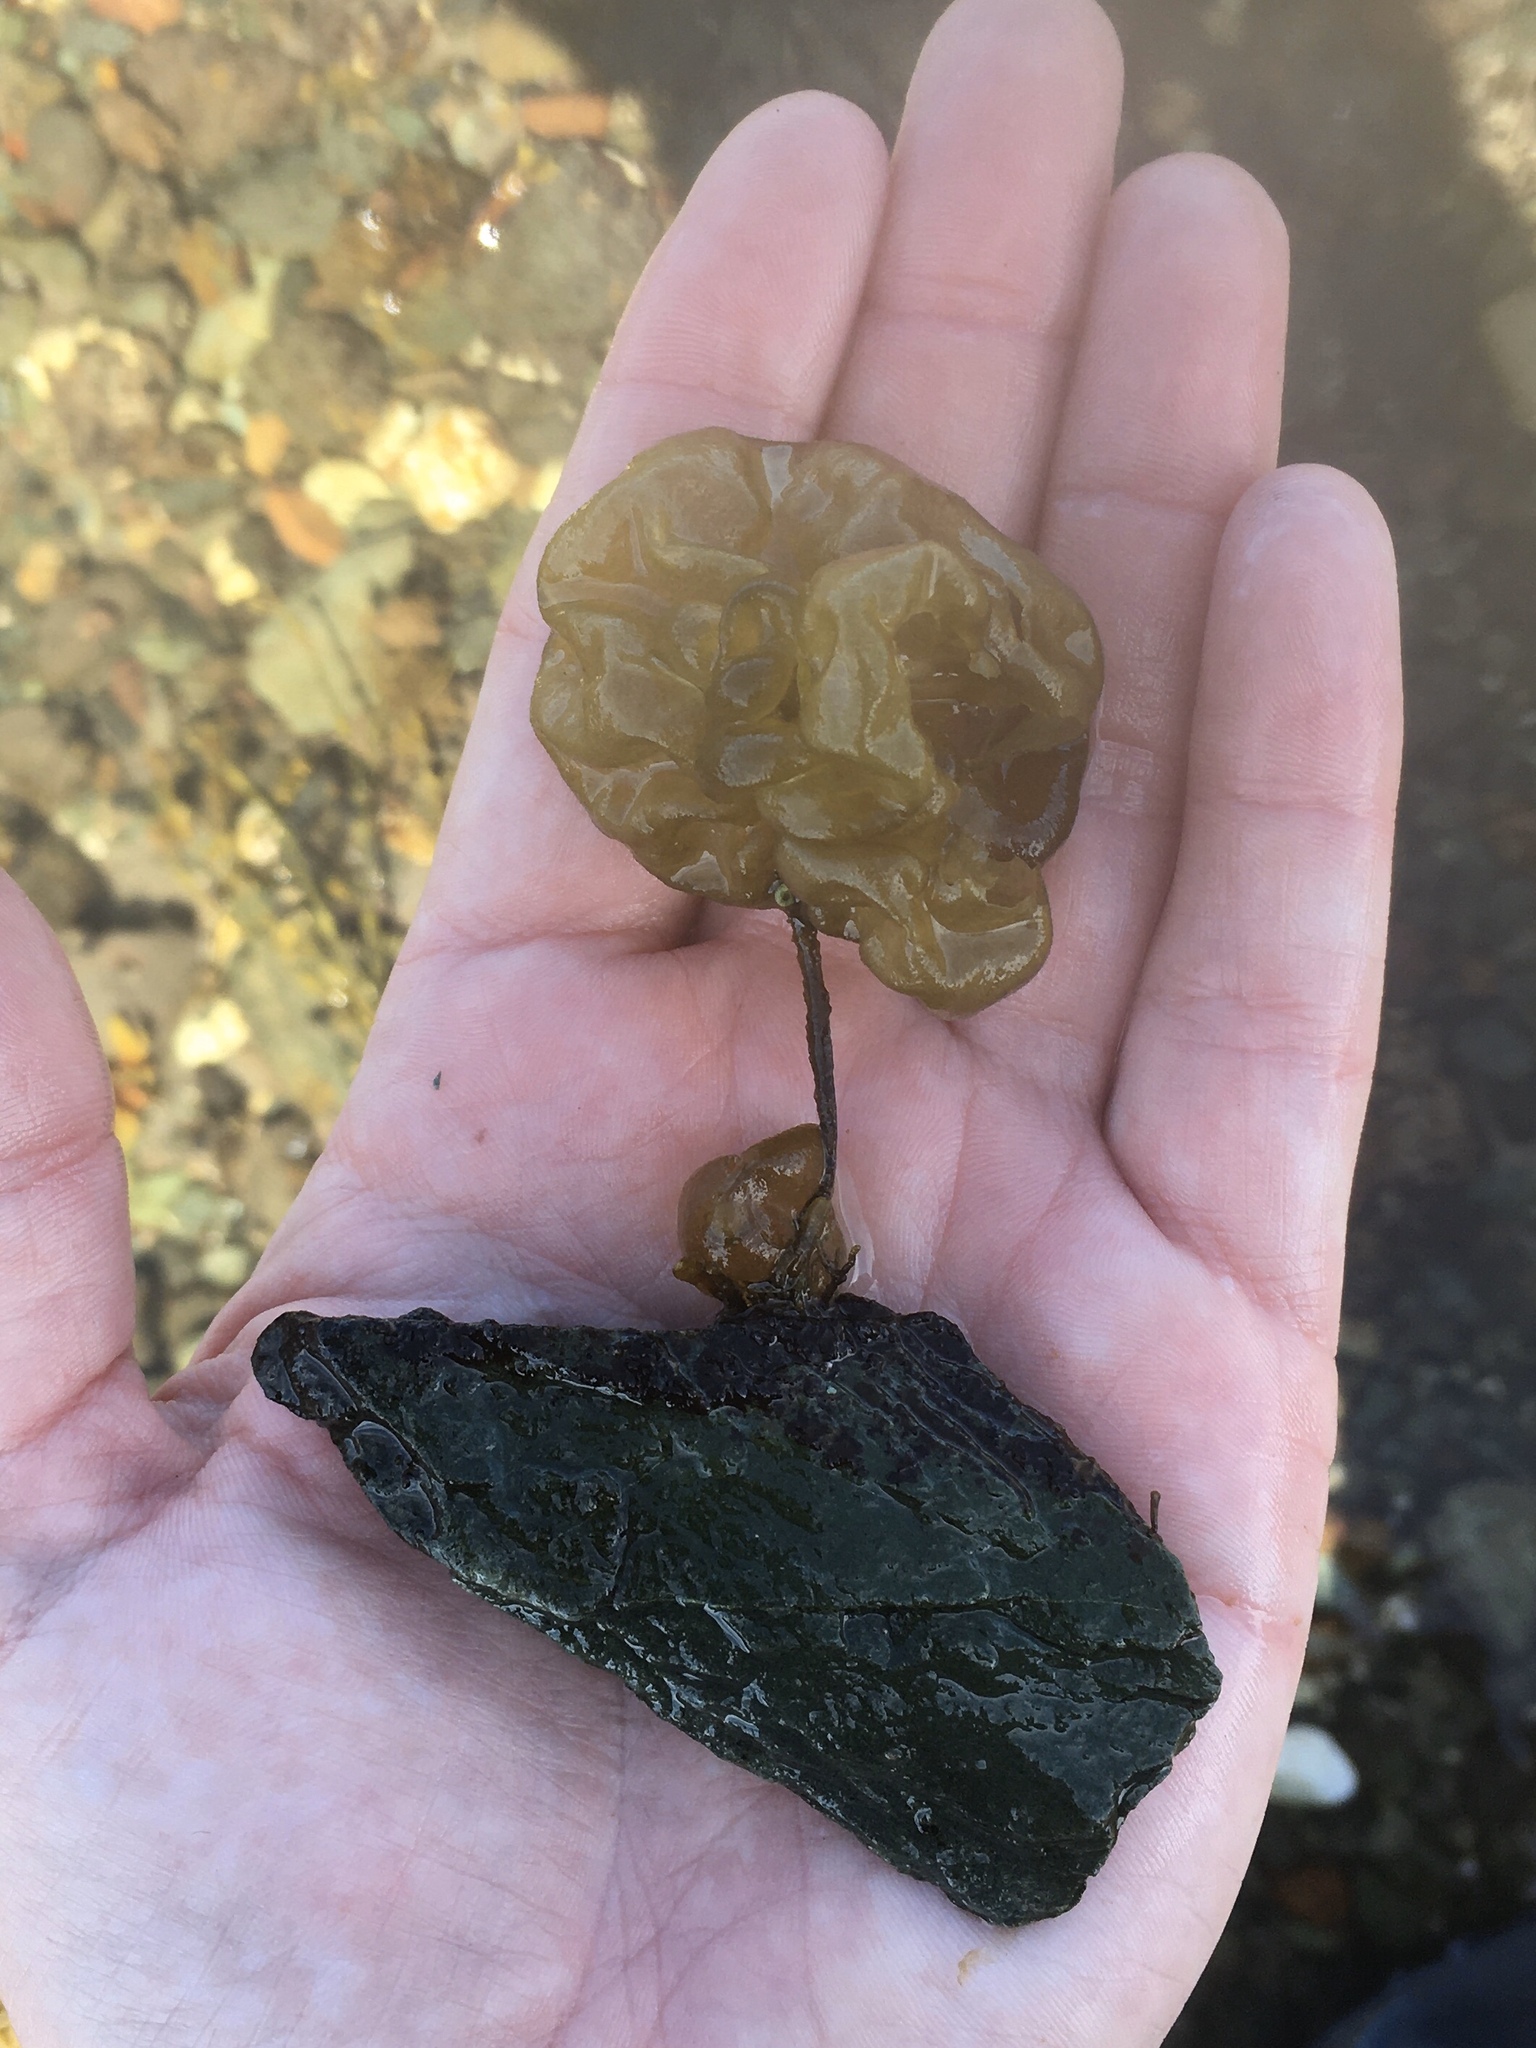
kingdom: Chromista
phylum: Ochrophyta
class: Phaeophyceae
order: Scytosiphonales
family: Scytosiphonaceae
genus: Colpomenia
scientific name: Colpomenia peregrina
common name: Oyster thief
